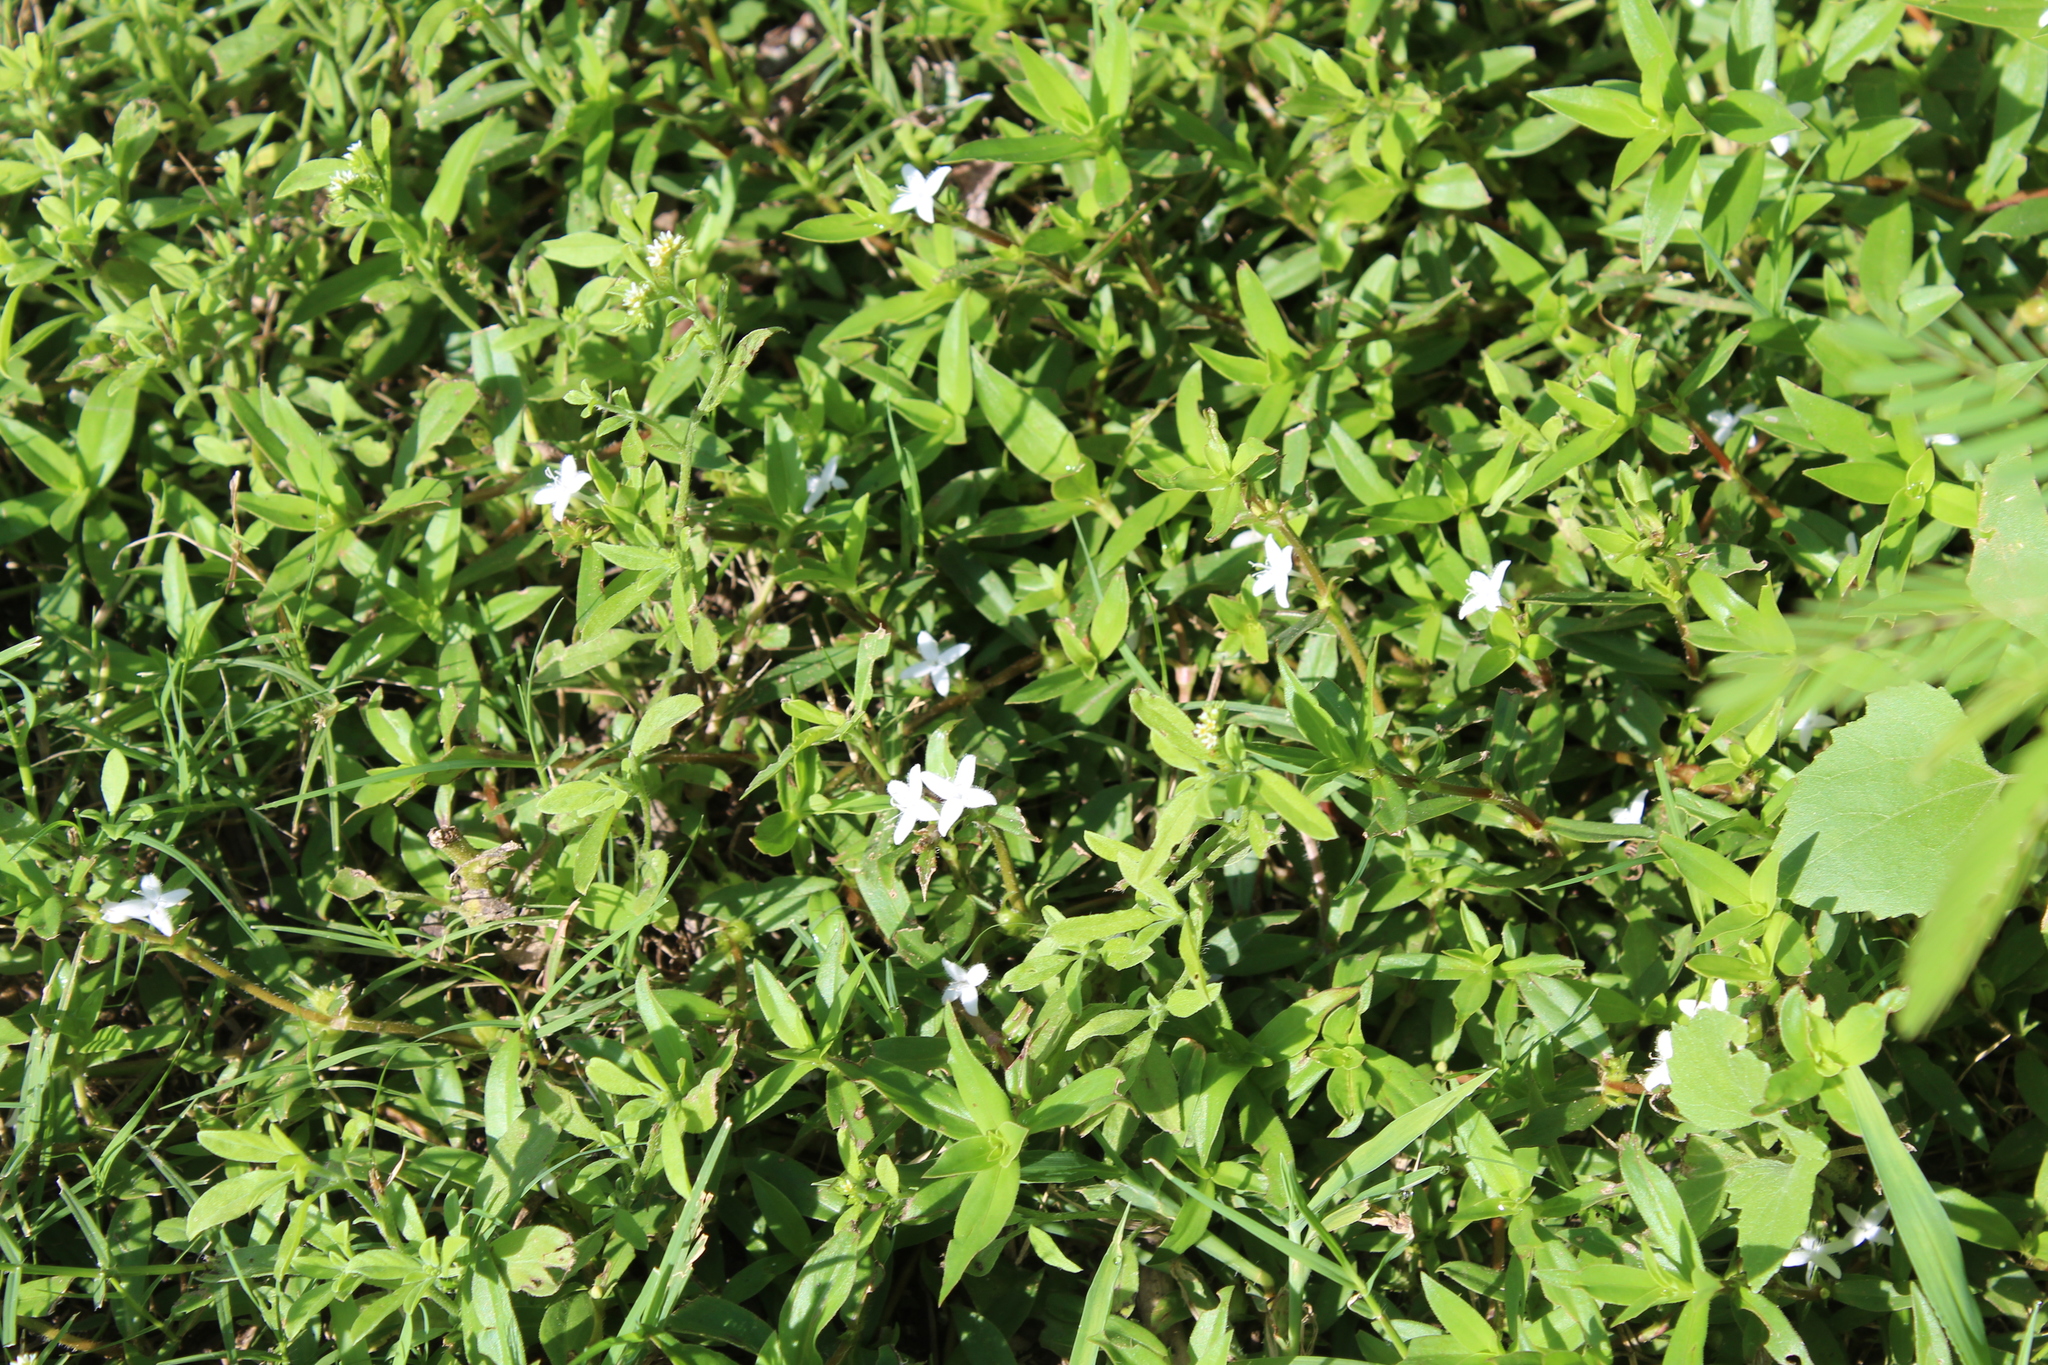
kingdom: Plantae
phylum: Tracheophyta
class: Magnoliopsida
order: Gentianales
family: Rubiaceae
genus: Diodia
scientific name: Diodia virginiana
